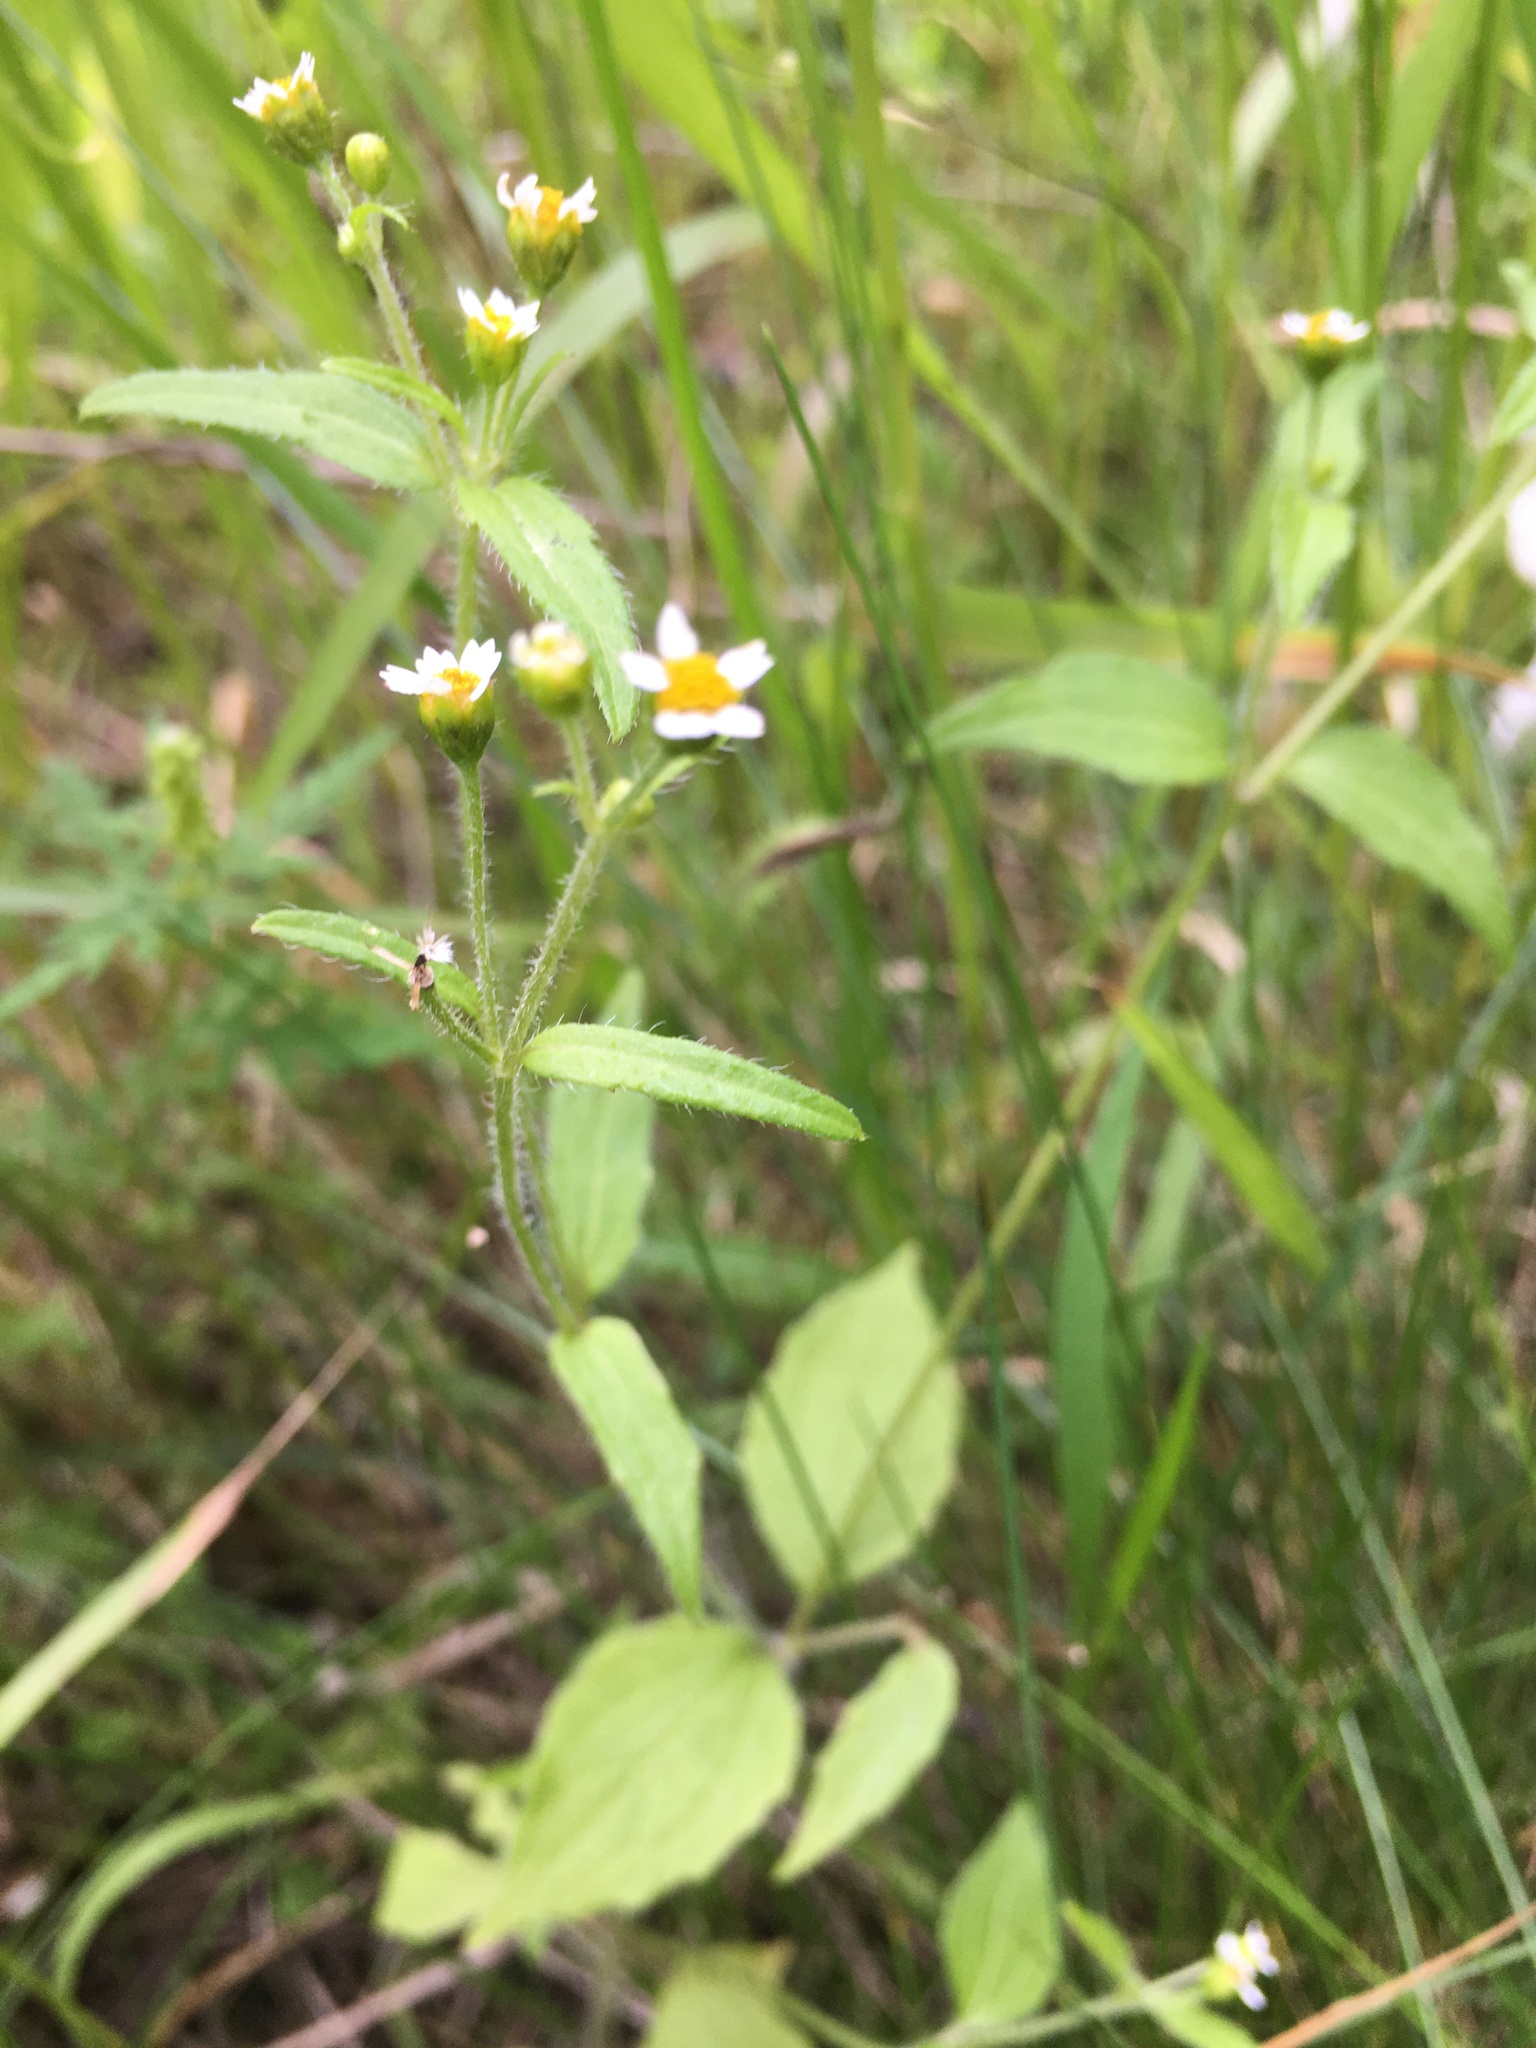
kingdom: Plantae
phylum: Tracheophyta
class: Magnoliopsida
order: Asterales
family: Asteraceae
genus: Galinsoga
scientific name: Galinsoga quadriradiata
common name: Shaggy soldier
